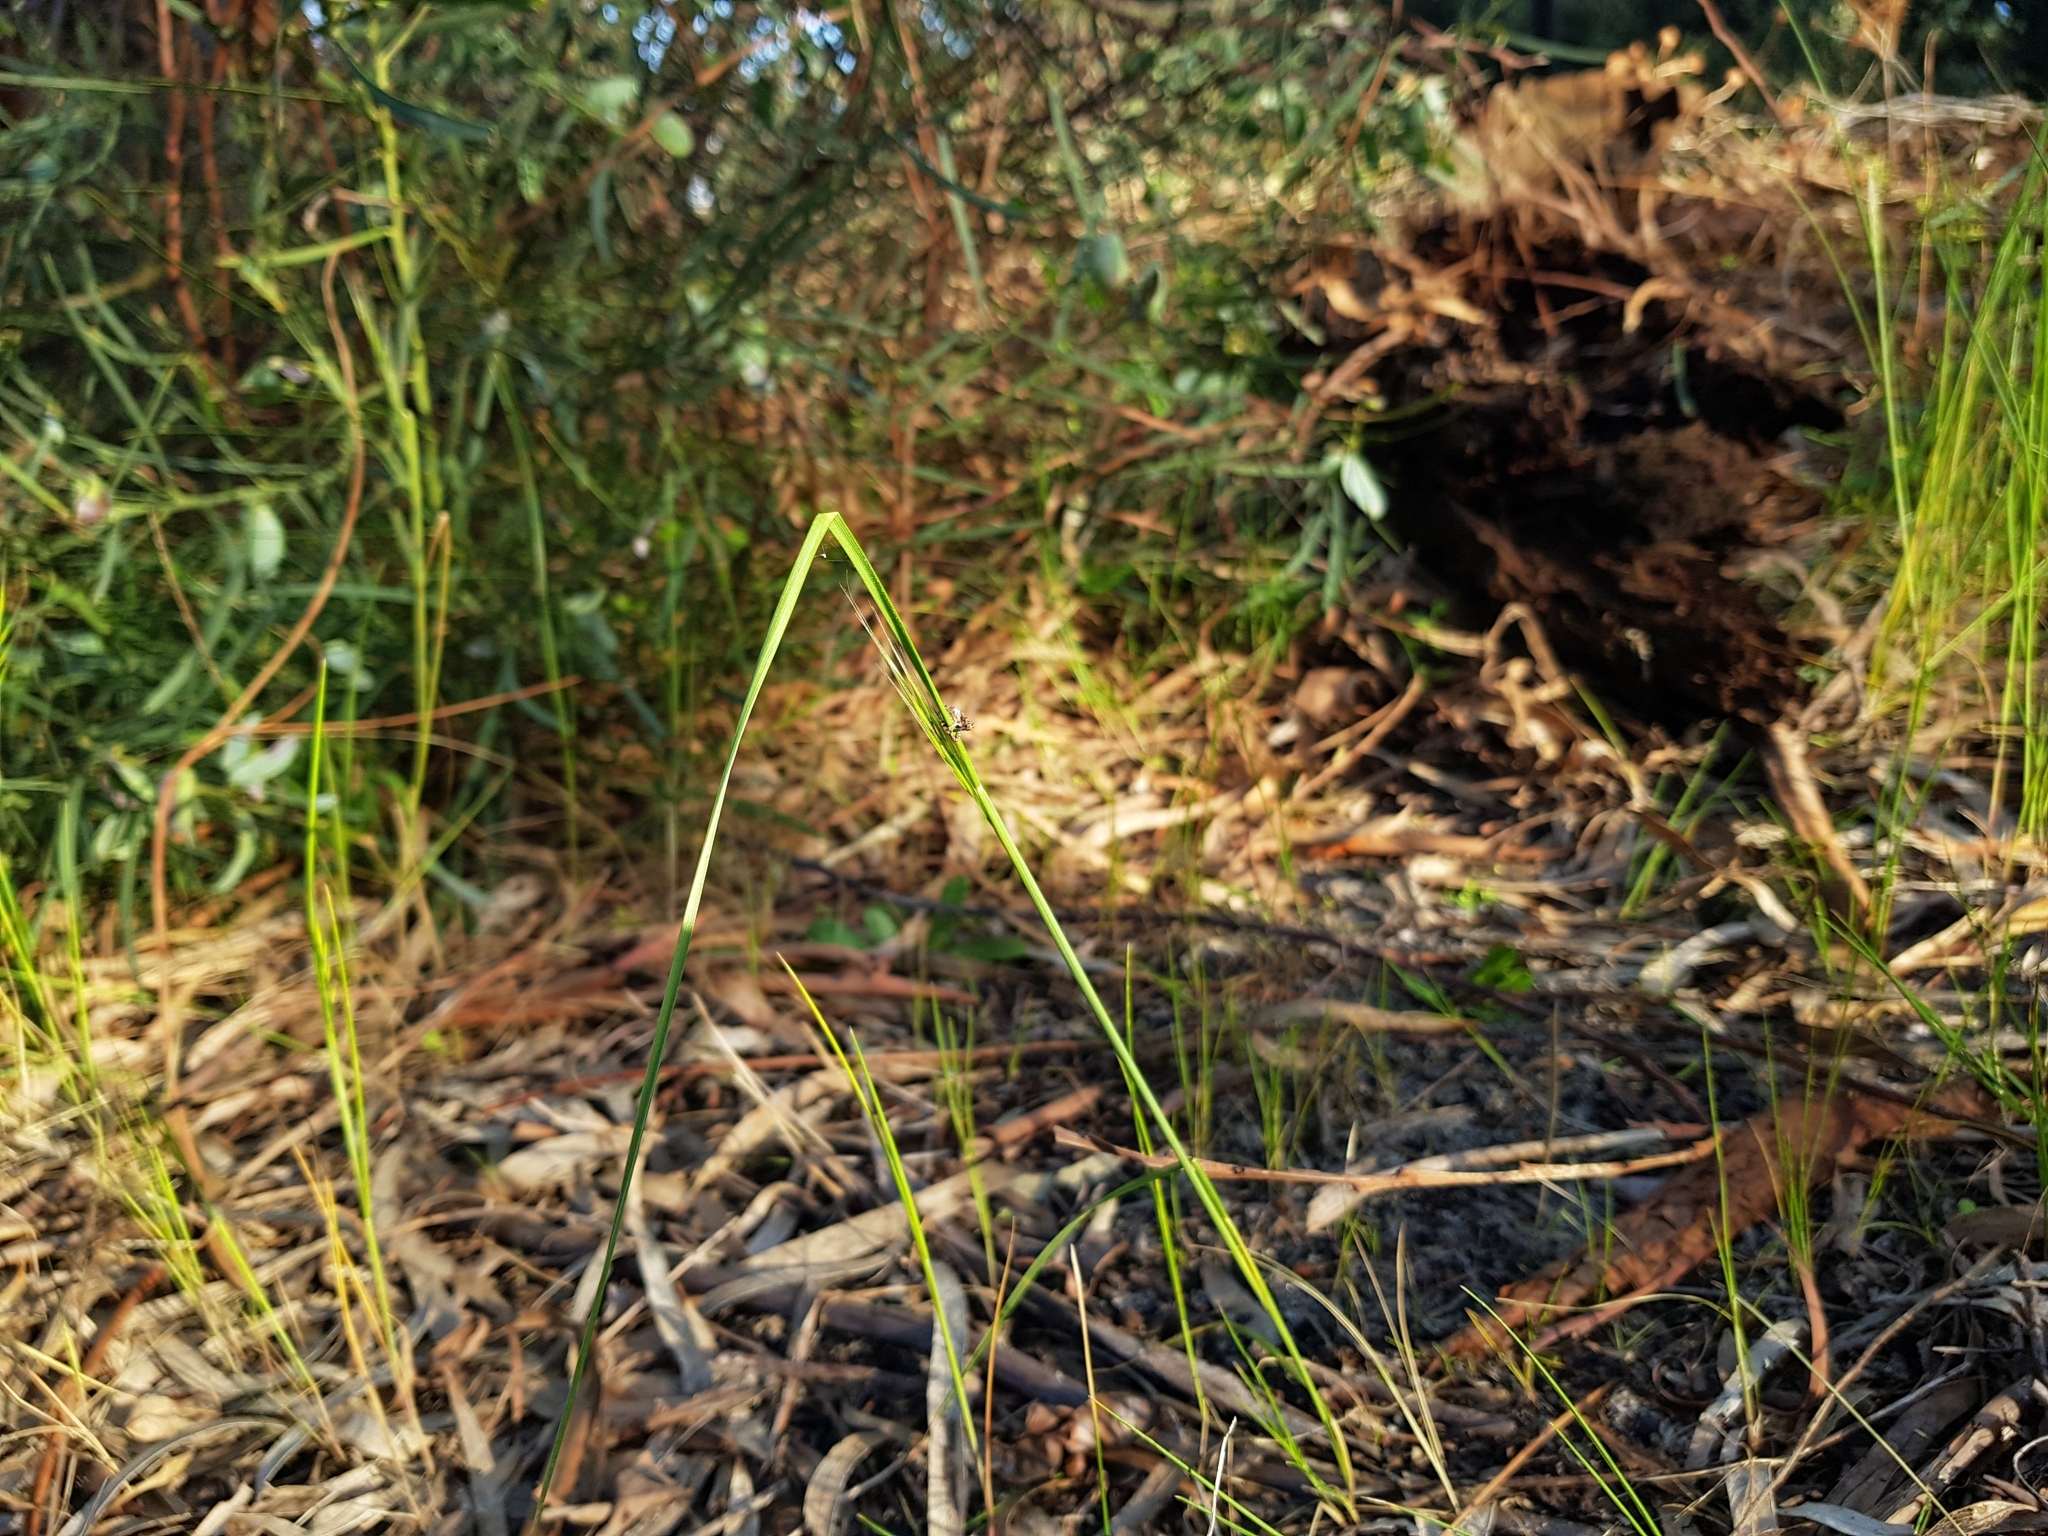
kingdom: Animalia
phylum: Arthropoda
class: Insecta
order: Coleoptera
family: Curculionidae
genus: Orthorhinus
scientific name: Orthorhinus klugii
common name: Vine weevil
